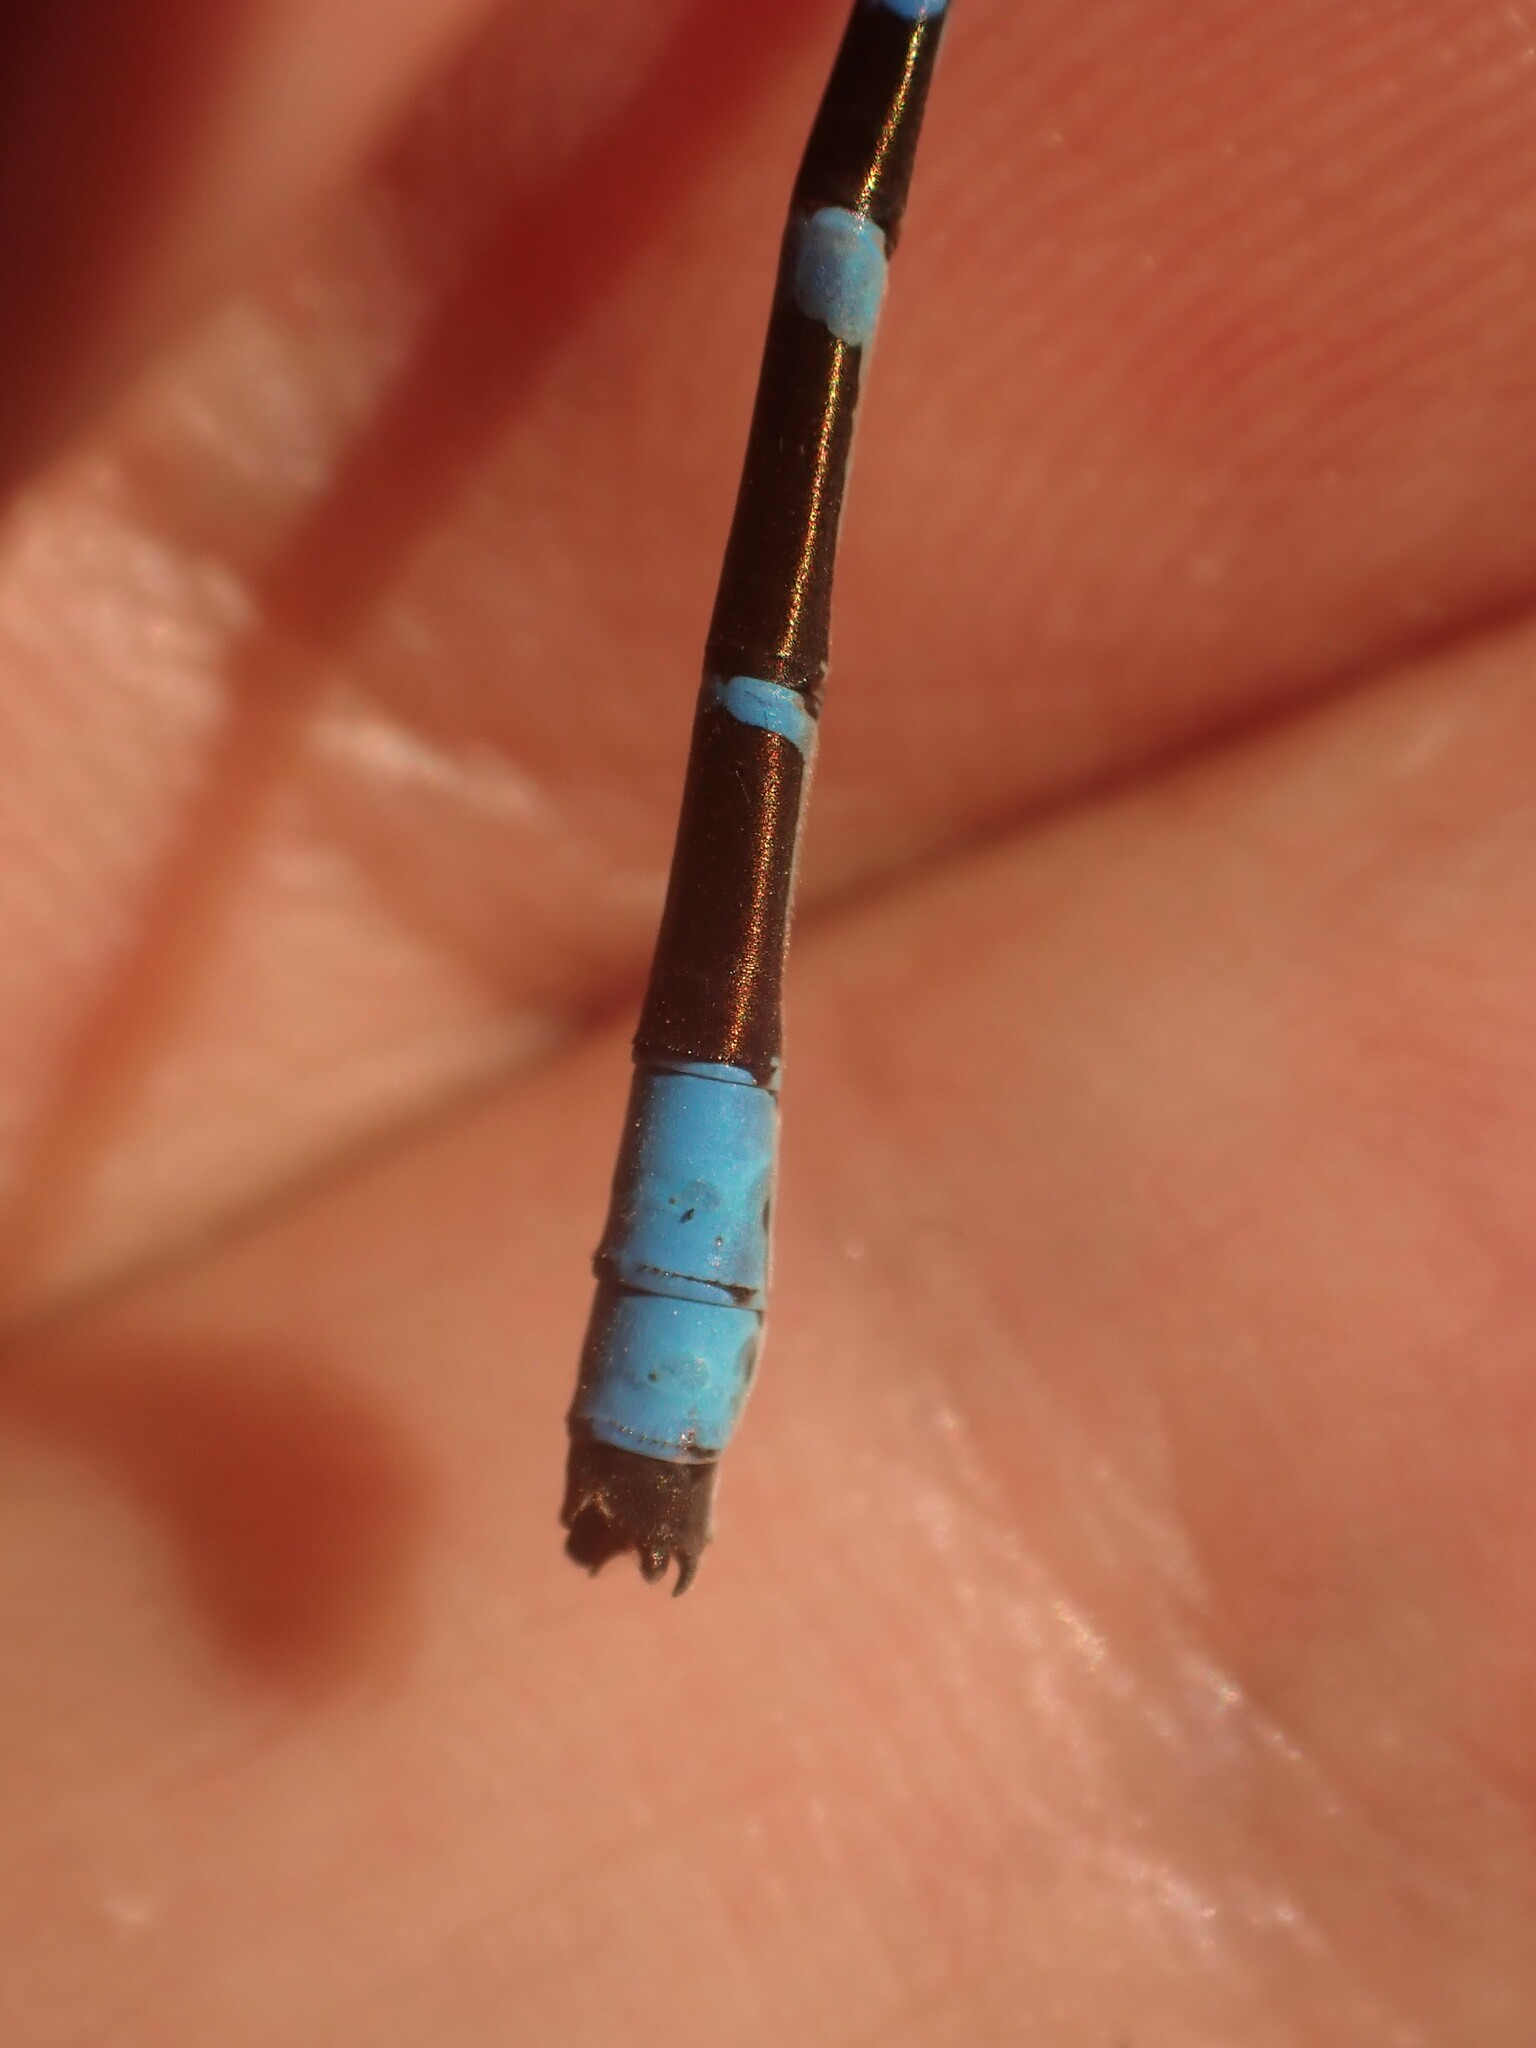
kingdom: Animalia
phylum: Arthropoda
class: Insecta
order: Odonata
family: Coenagrionidae
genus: Enallagma
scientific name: Enallagma boreale
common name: Boreal bluet
